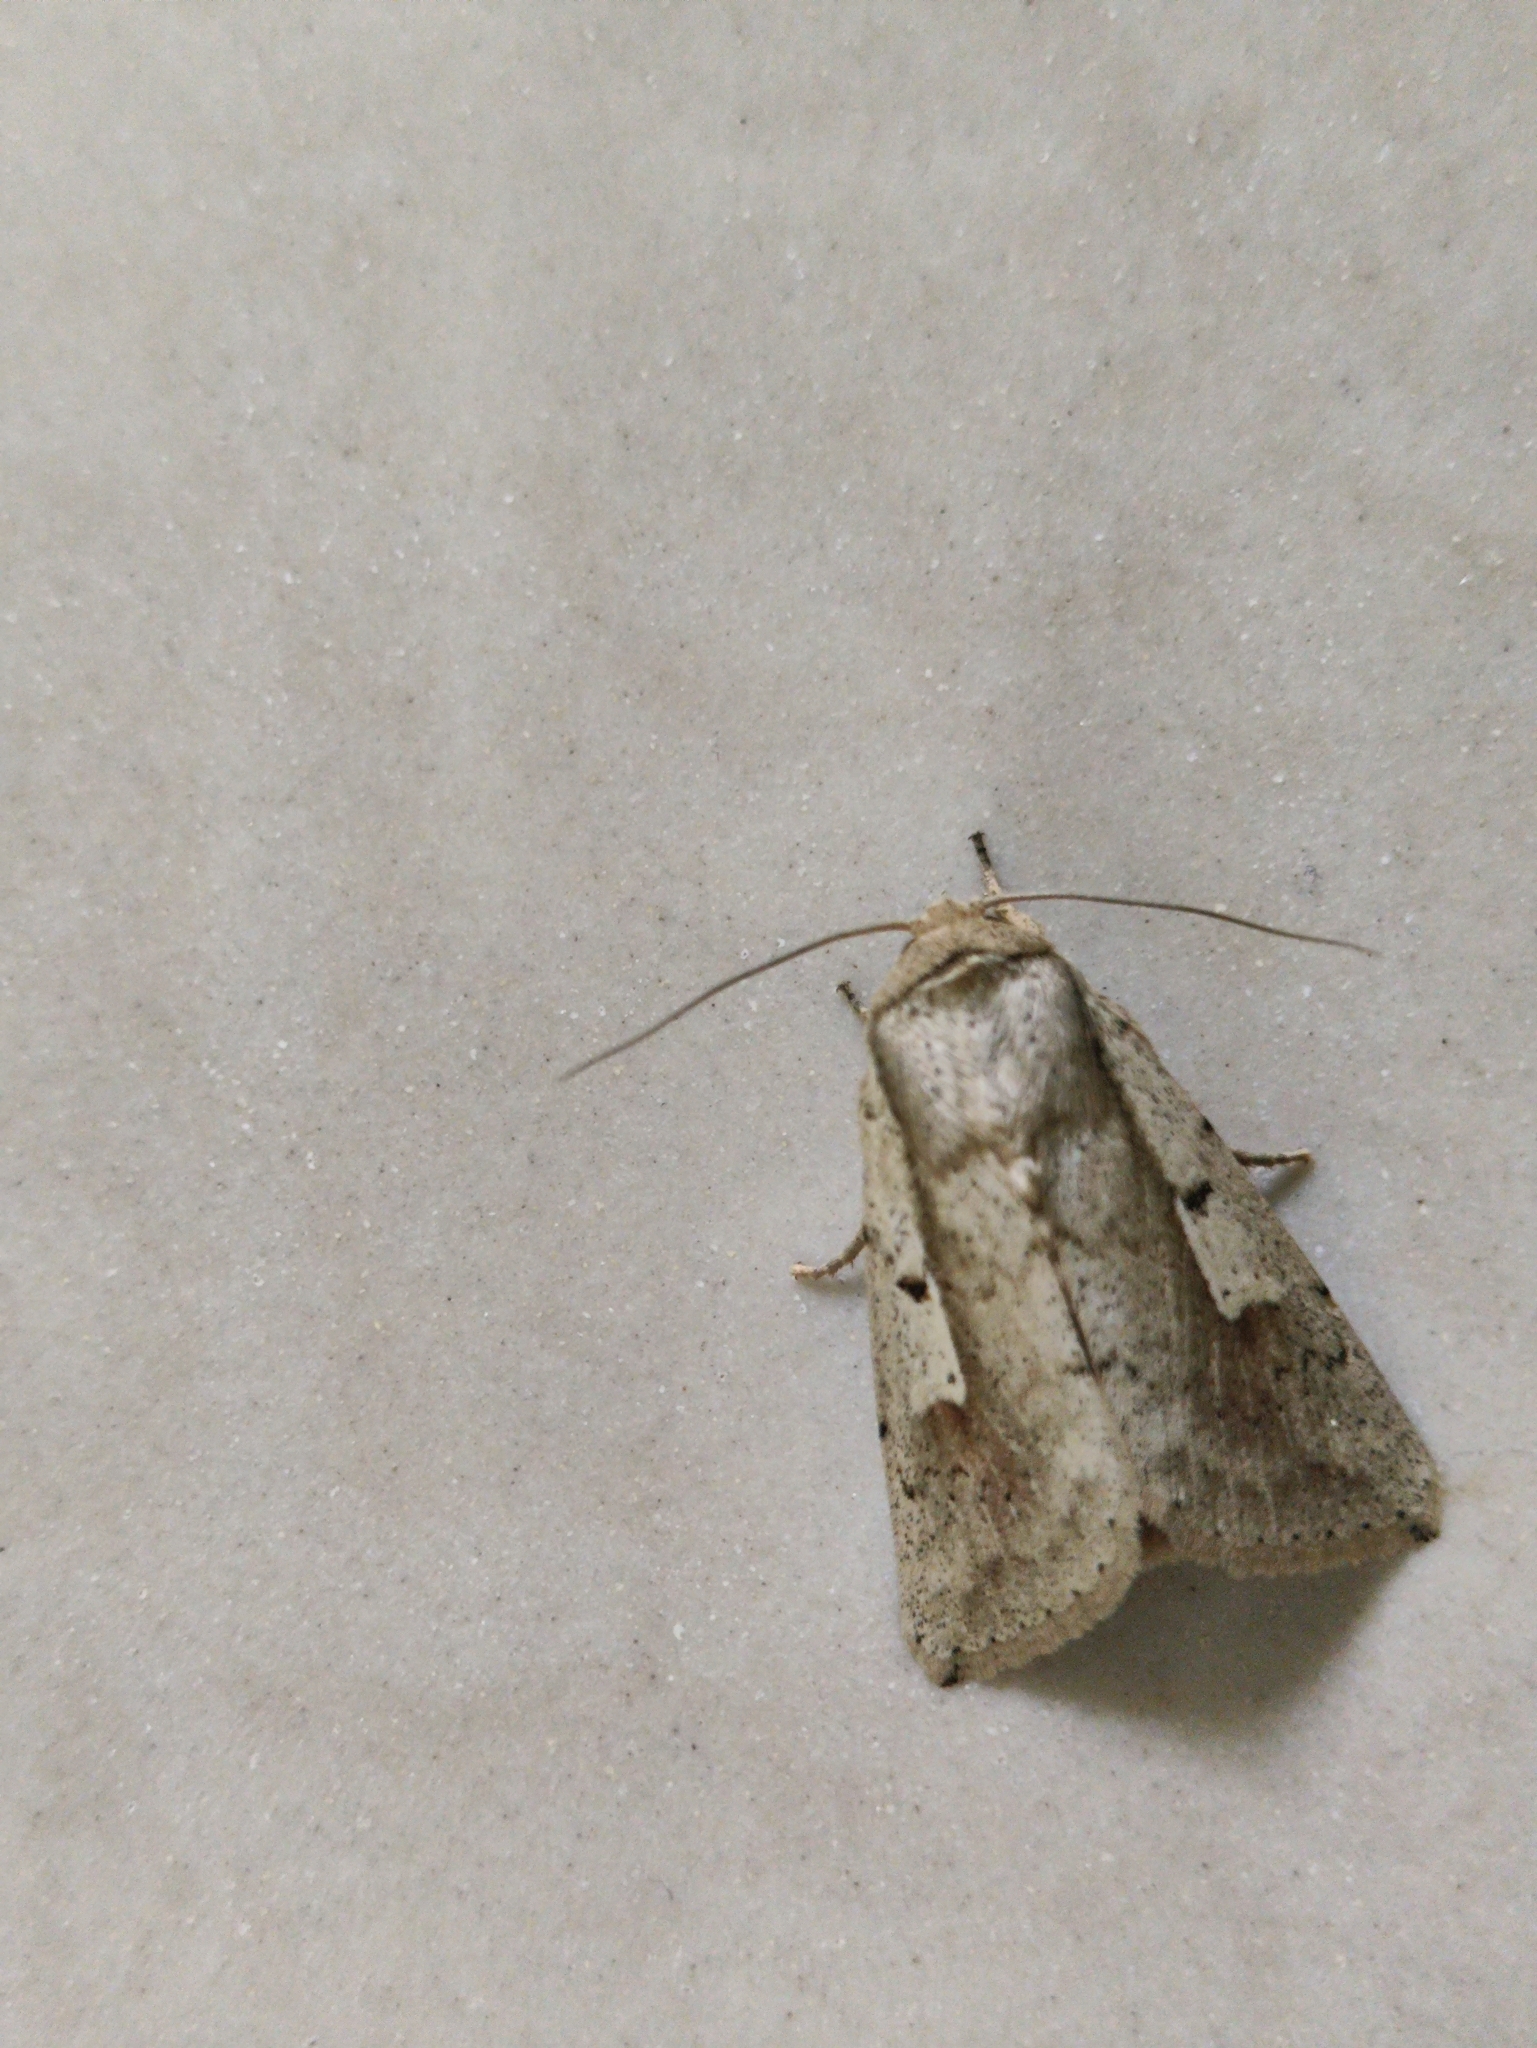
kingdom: Animalia
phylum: Arthropoda
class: Insecta
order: Lepidoptera
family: Noctuidae
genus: Leucania
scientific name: Leucania yu
